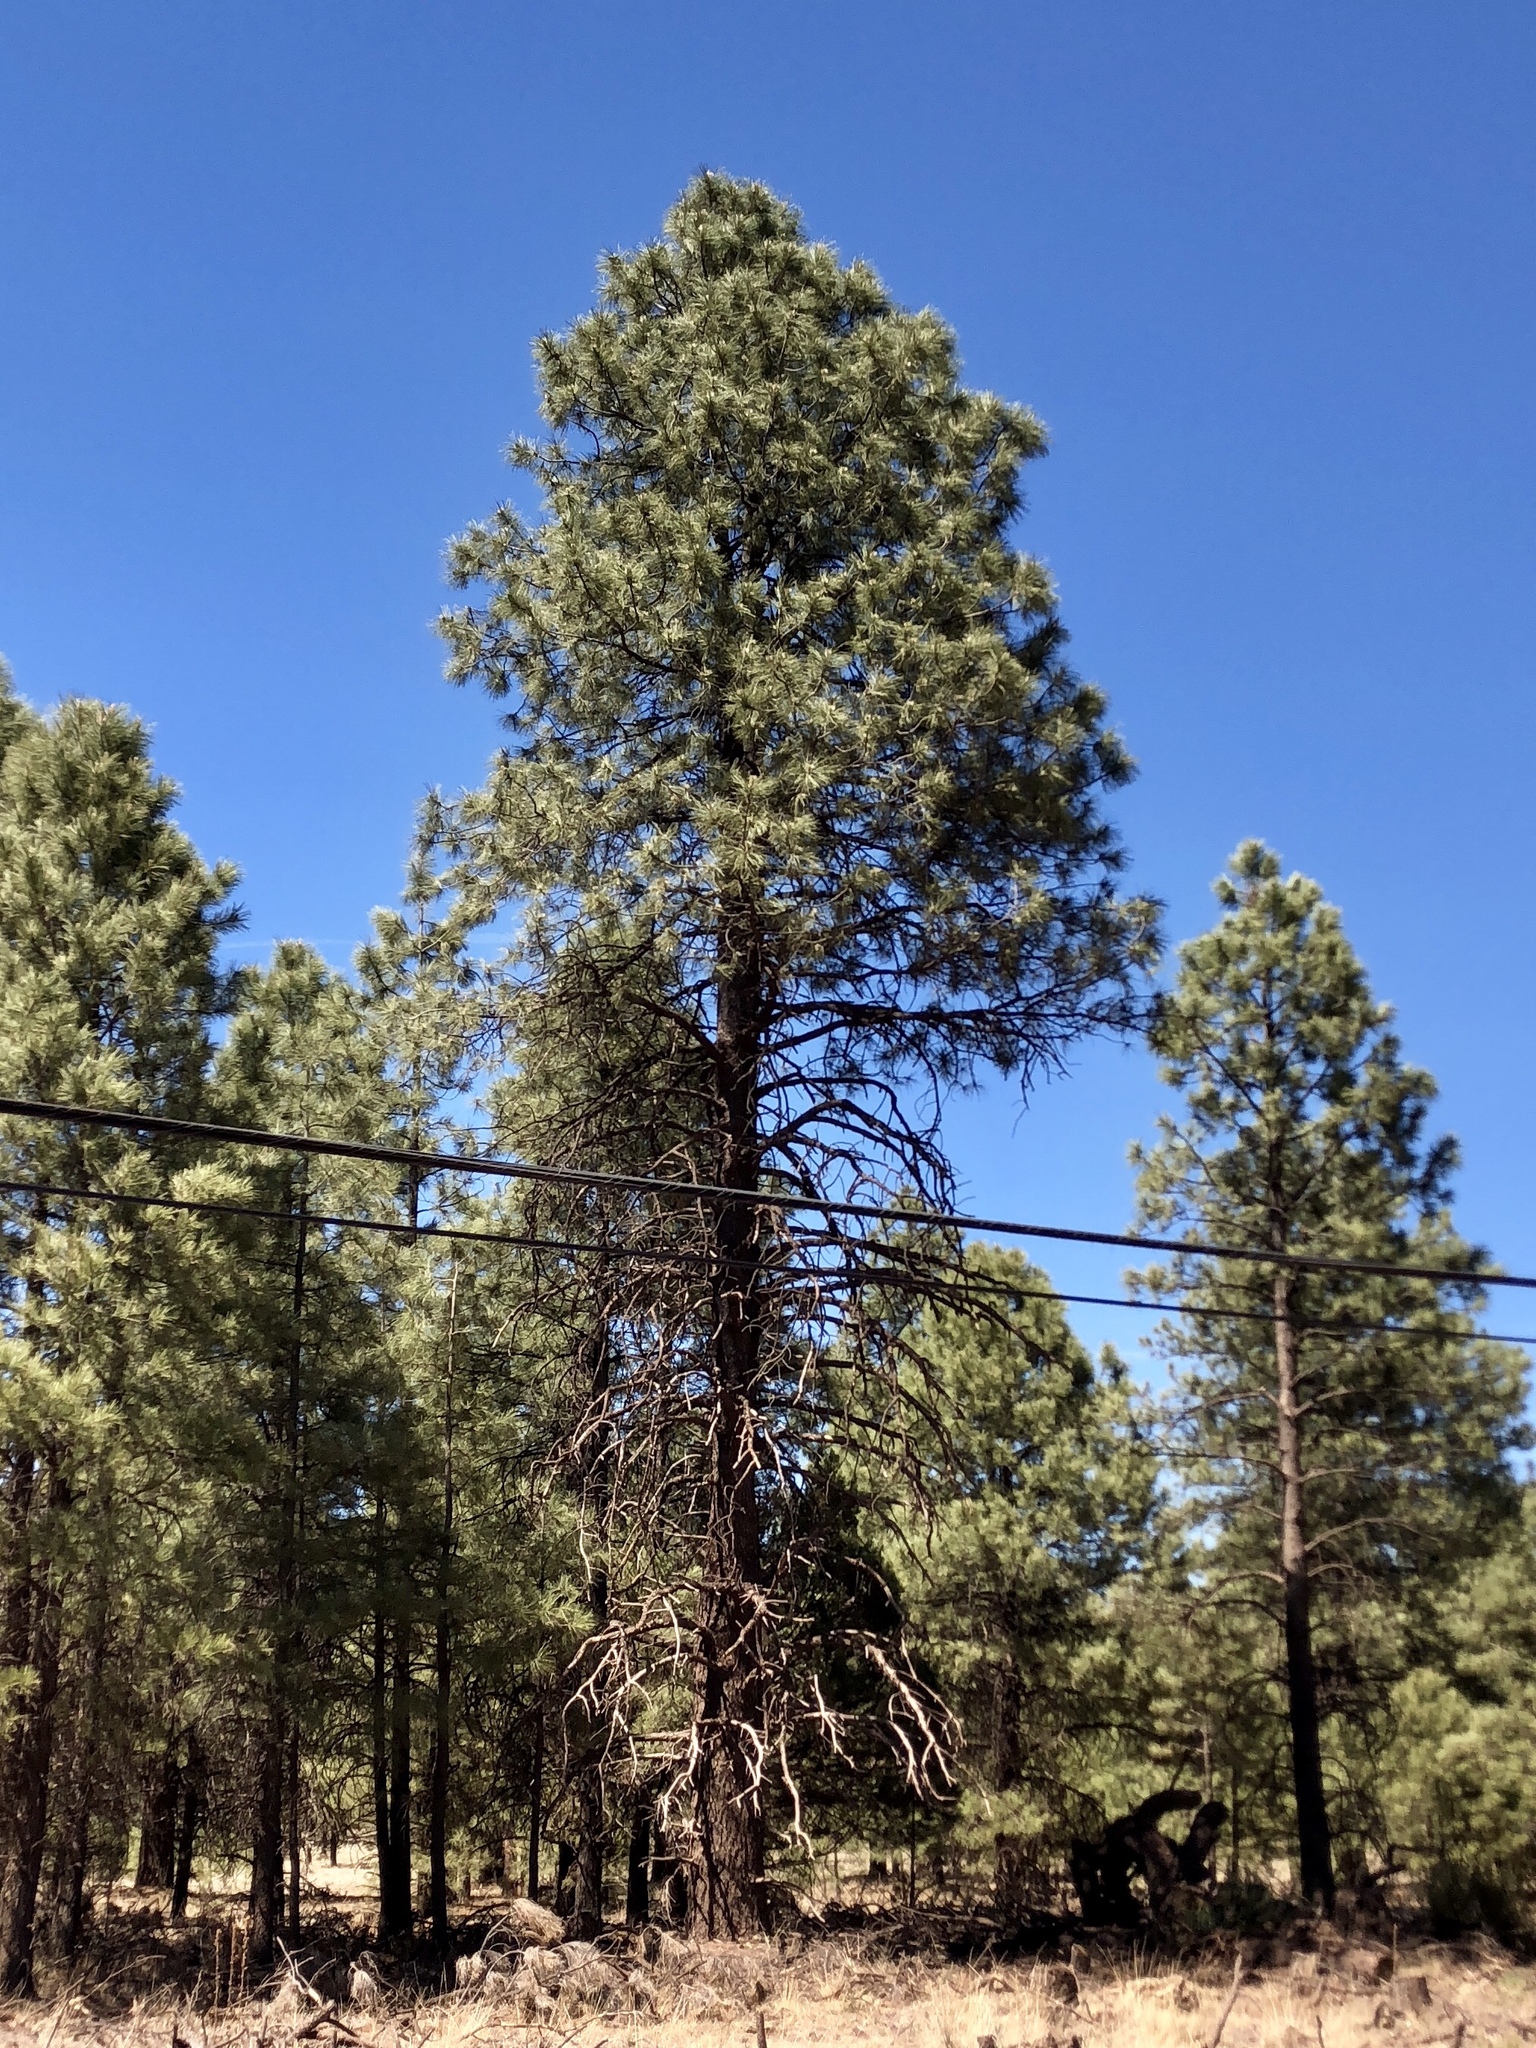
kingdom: Plantae
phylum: Tracheophyta
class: Pinopsida
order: Pinales
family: Pinaceae
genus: Pinus
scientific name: Pinus ponderosa
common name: Western yellow-pine
